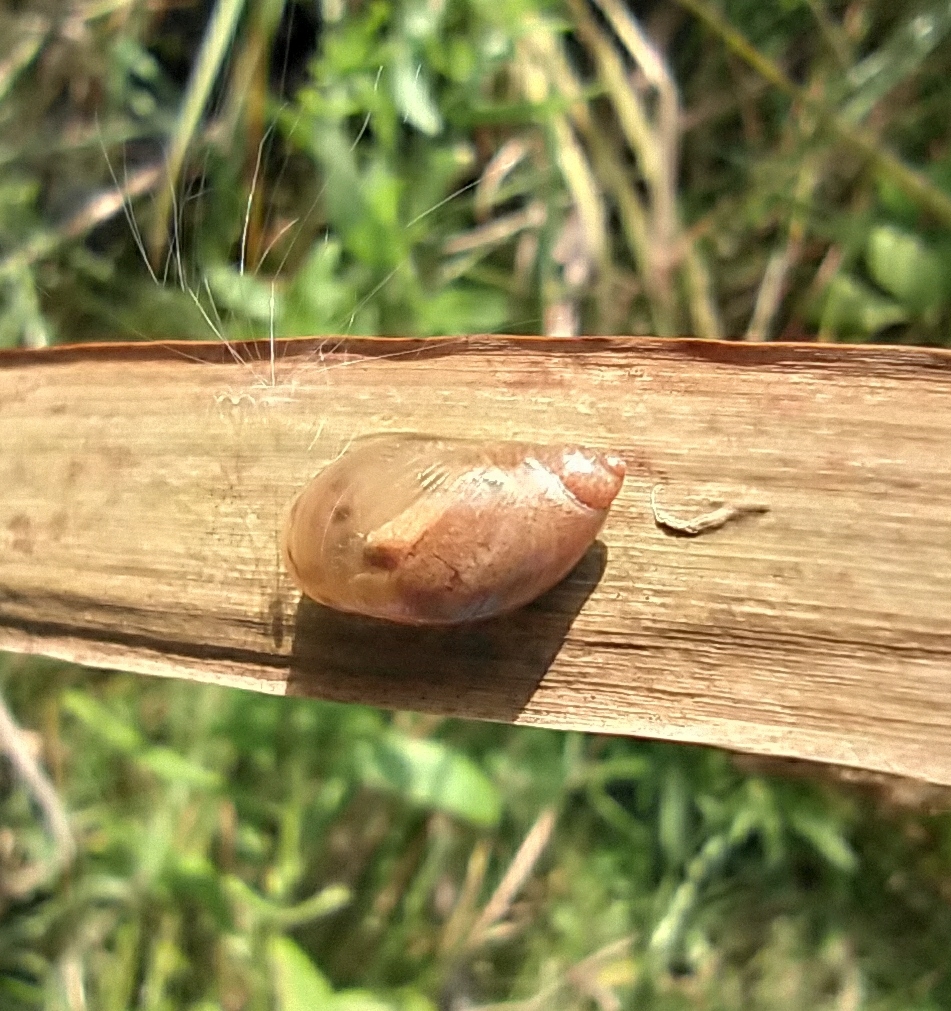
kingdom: Animalia
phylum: Mollusca
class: Gastropoda
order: Stylommatophora
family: Succineidae
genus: Succinea
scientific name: Succinea putris
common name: European ambersnail
